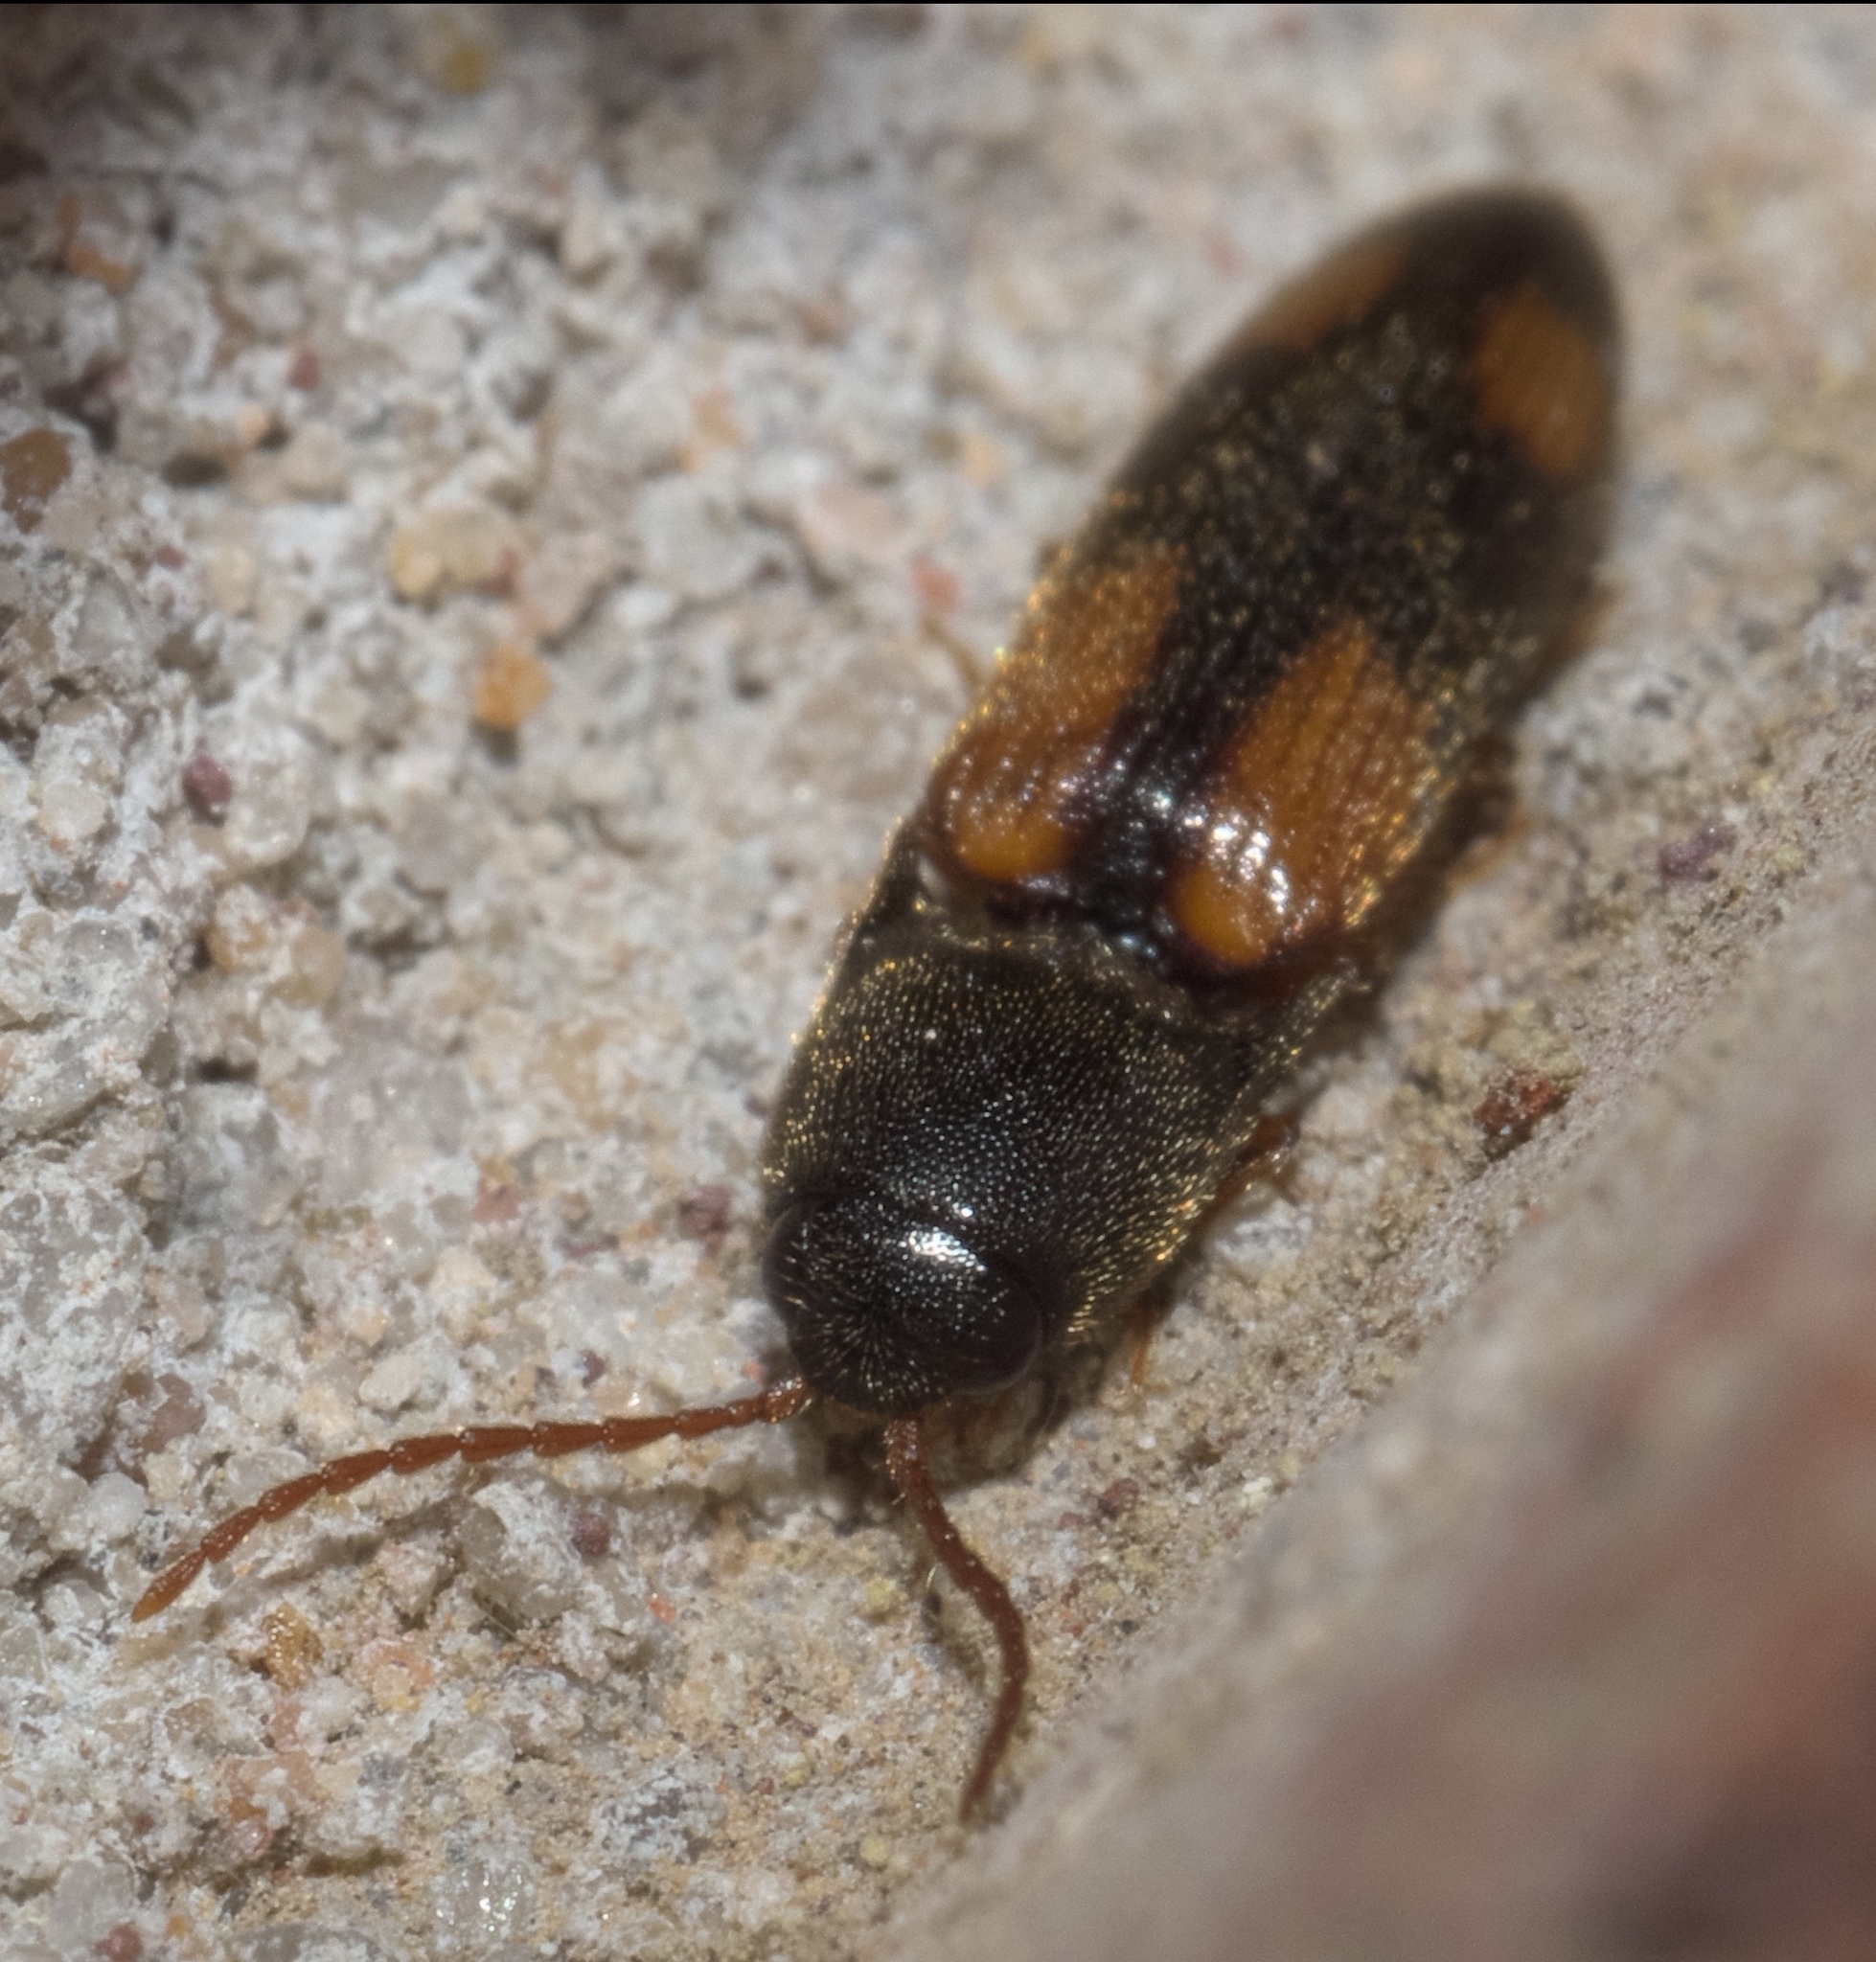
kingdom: Animalia
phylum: Arthropoda
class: Insecta
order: Coleoptera
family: Elateridae
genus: Anchastus
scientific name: Anchastus binus
